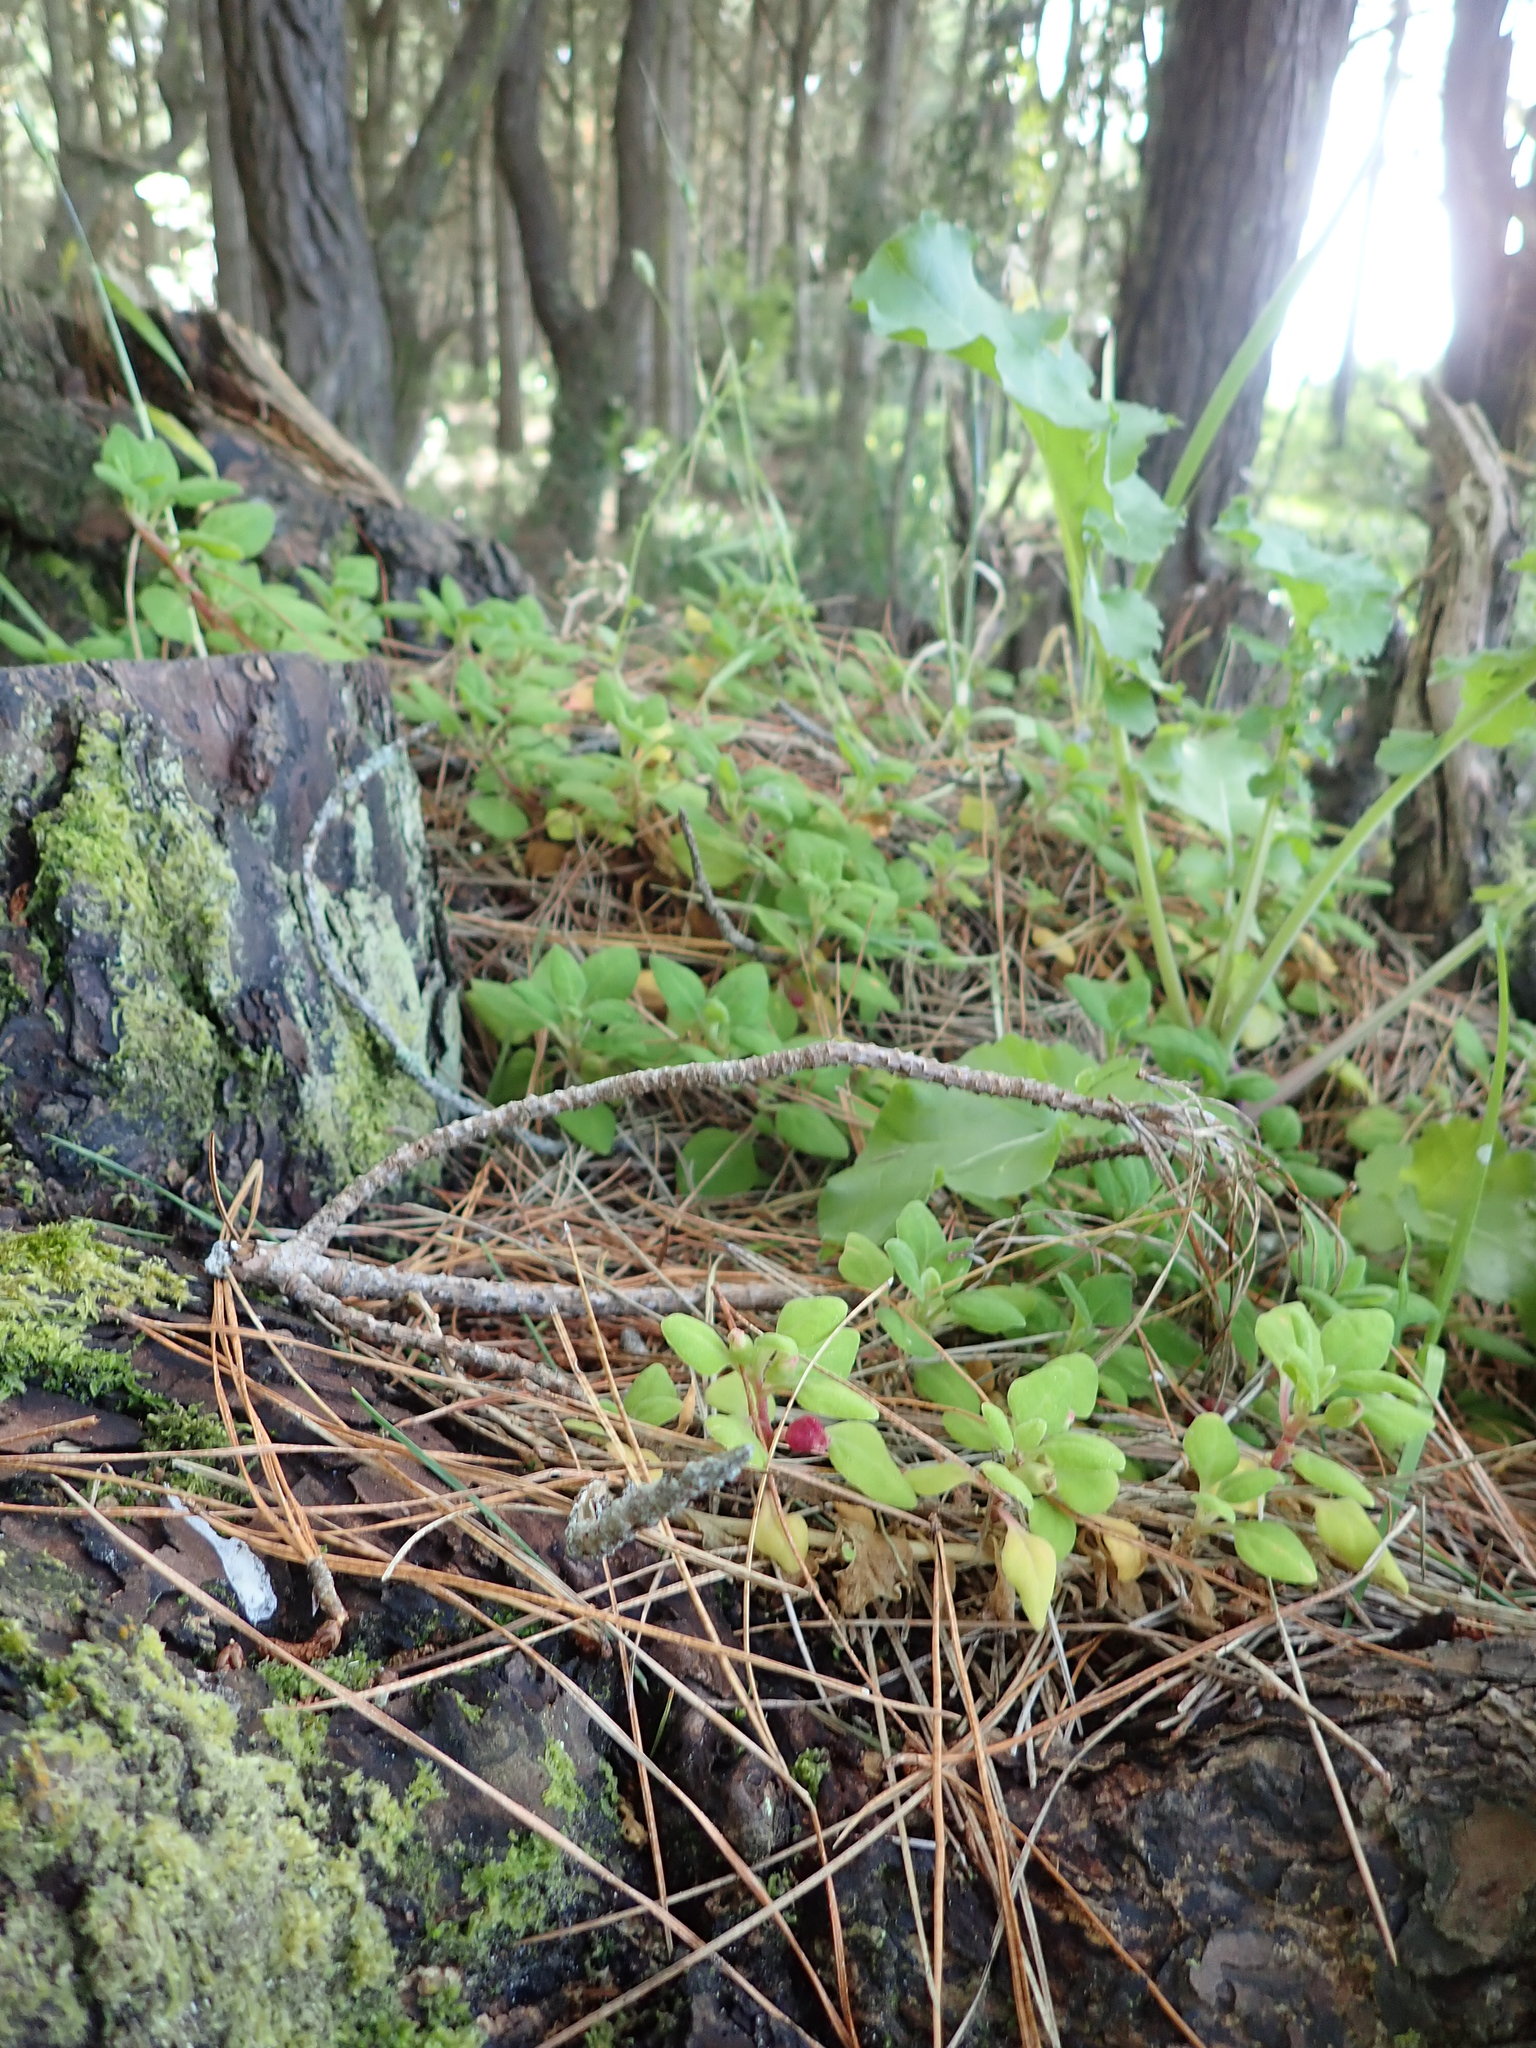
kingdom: Plantae
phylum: Tracheophyta
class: Magnoliopsida
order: Caryophyllales
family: Aizoaceae
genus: Tetragonia
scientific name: Tetragonia implexicoma
